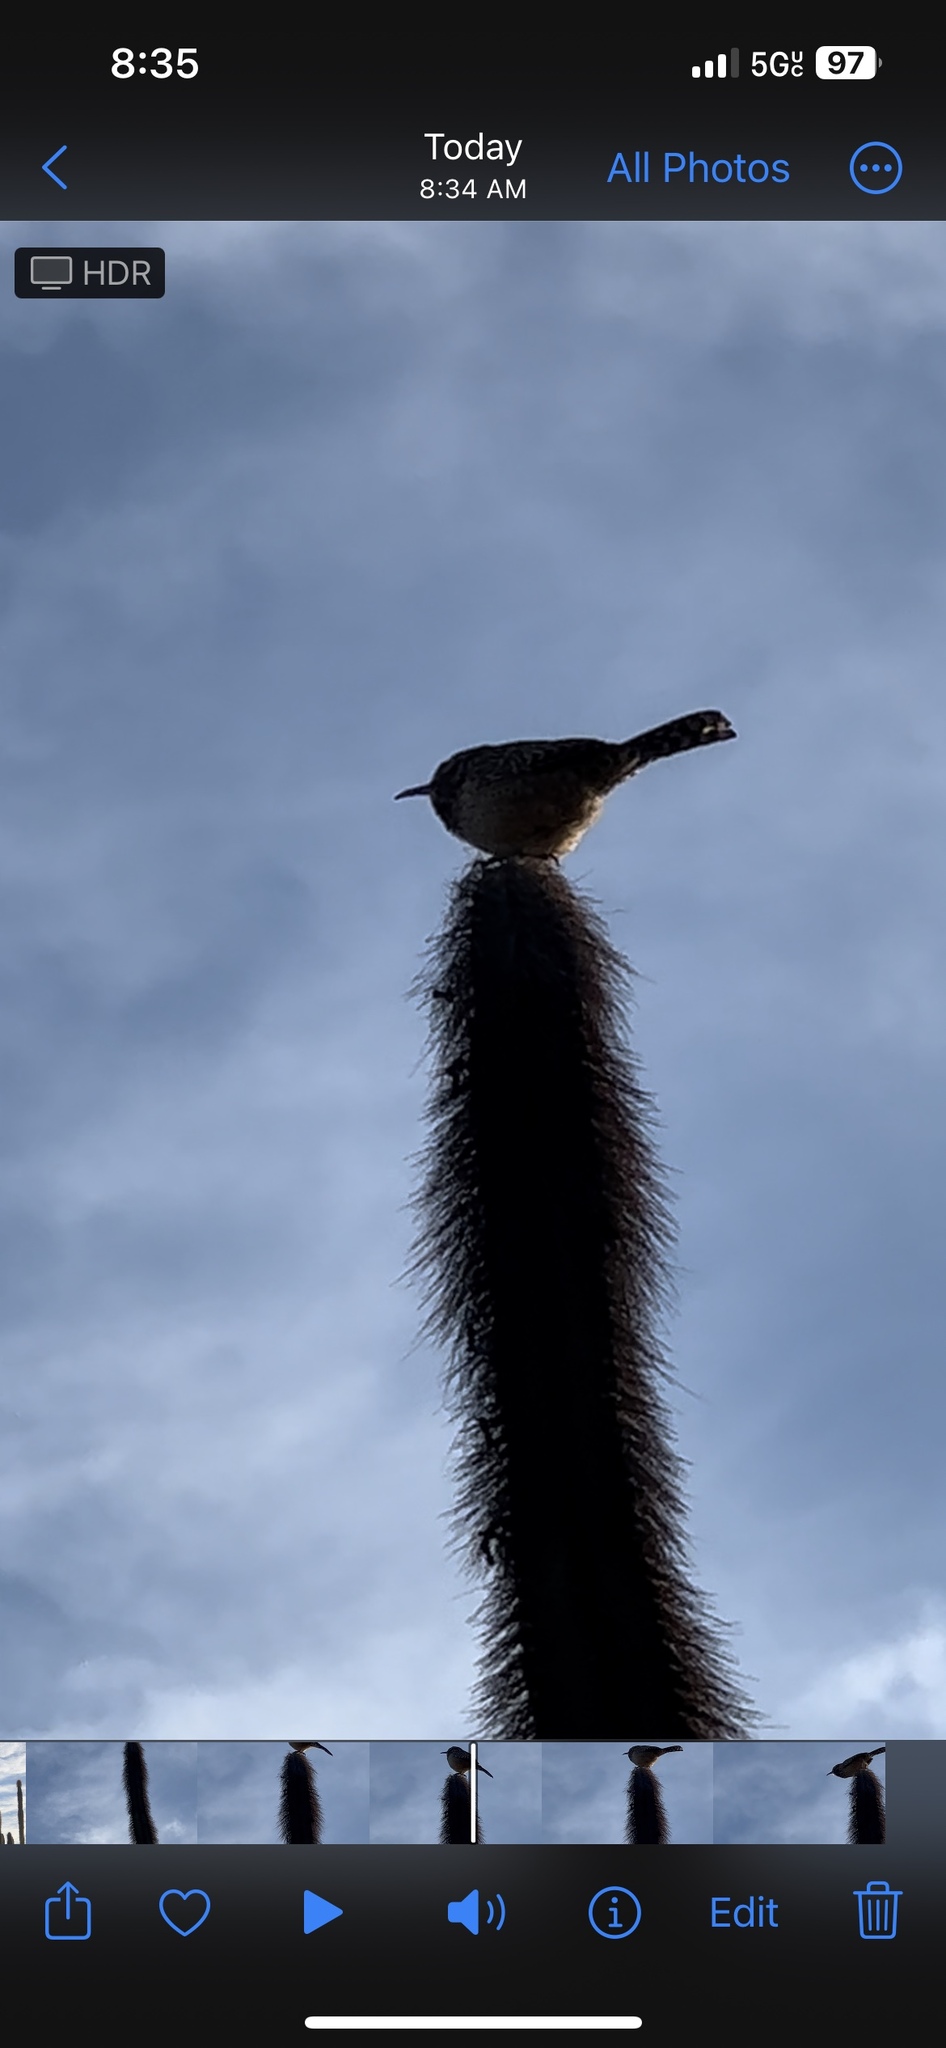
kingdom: Animalia
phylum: Chordata
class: Aves
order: Passeriformes
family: Troglodytidae
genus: Campylorhynchus
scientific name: Campylorhynchus brunneicapillus
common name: Cactus wren
